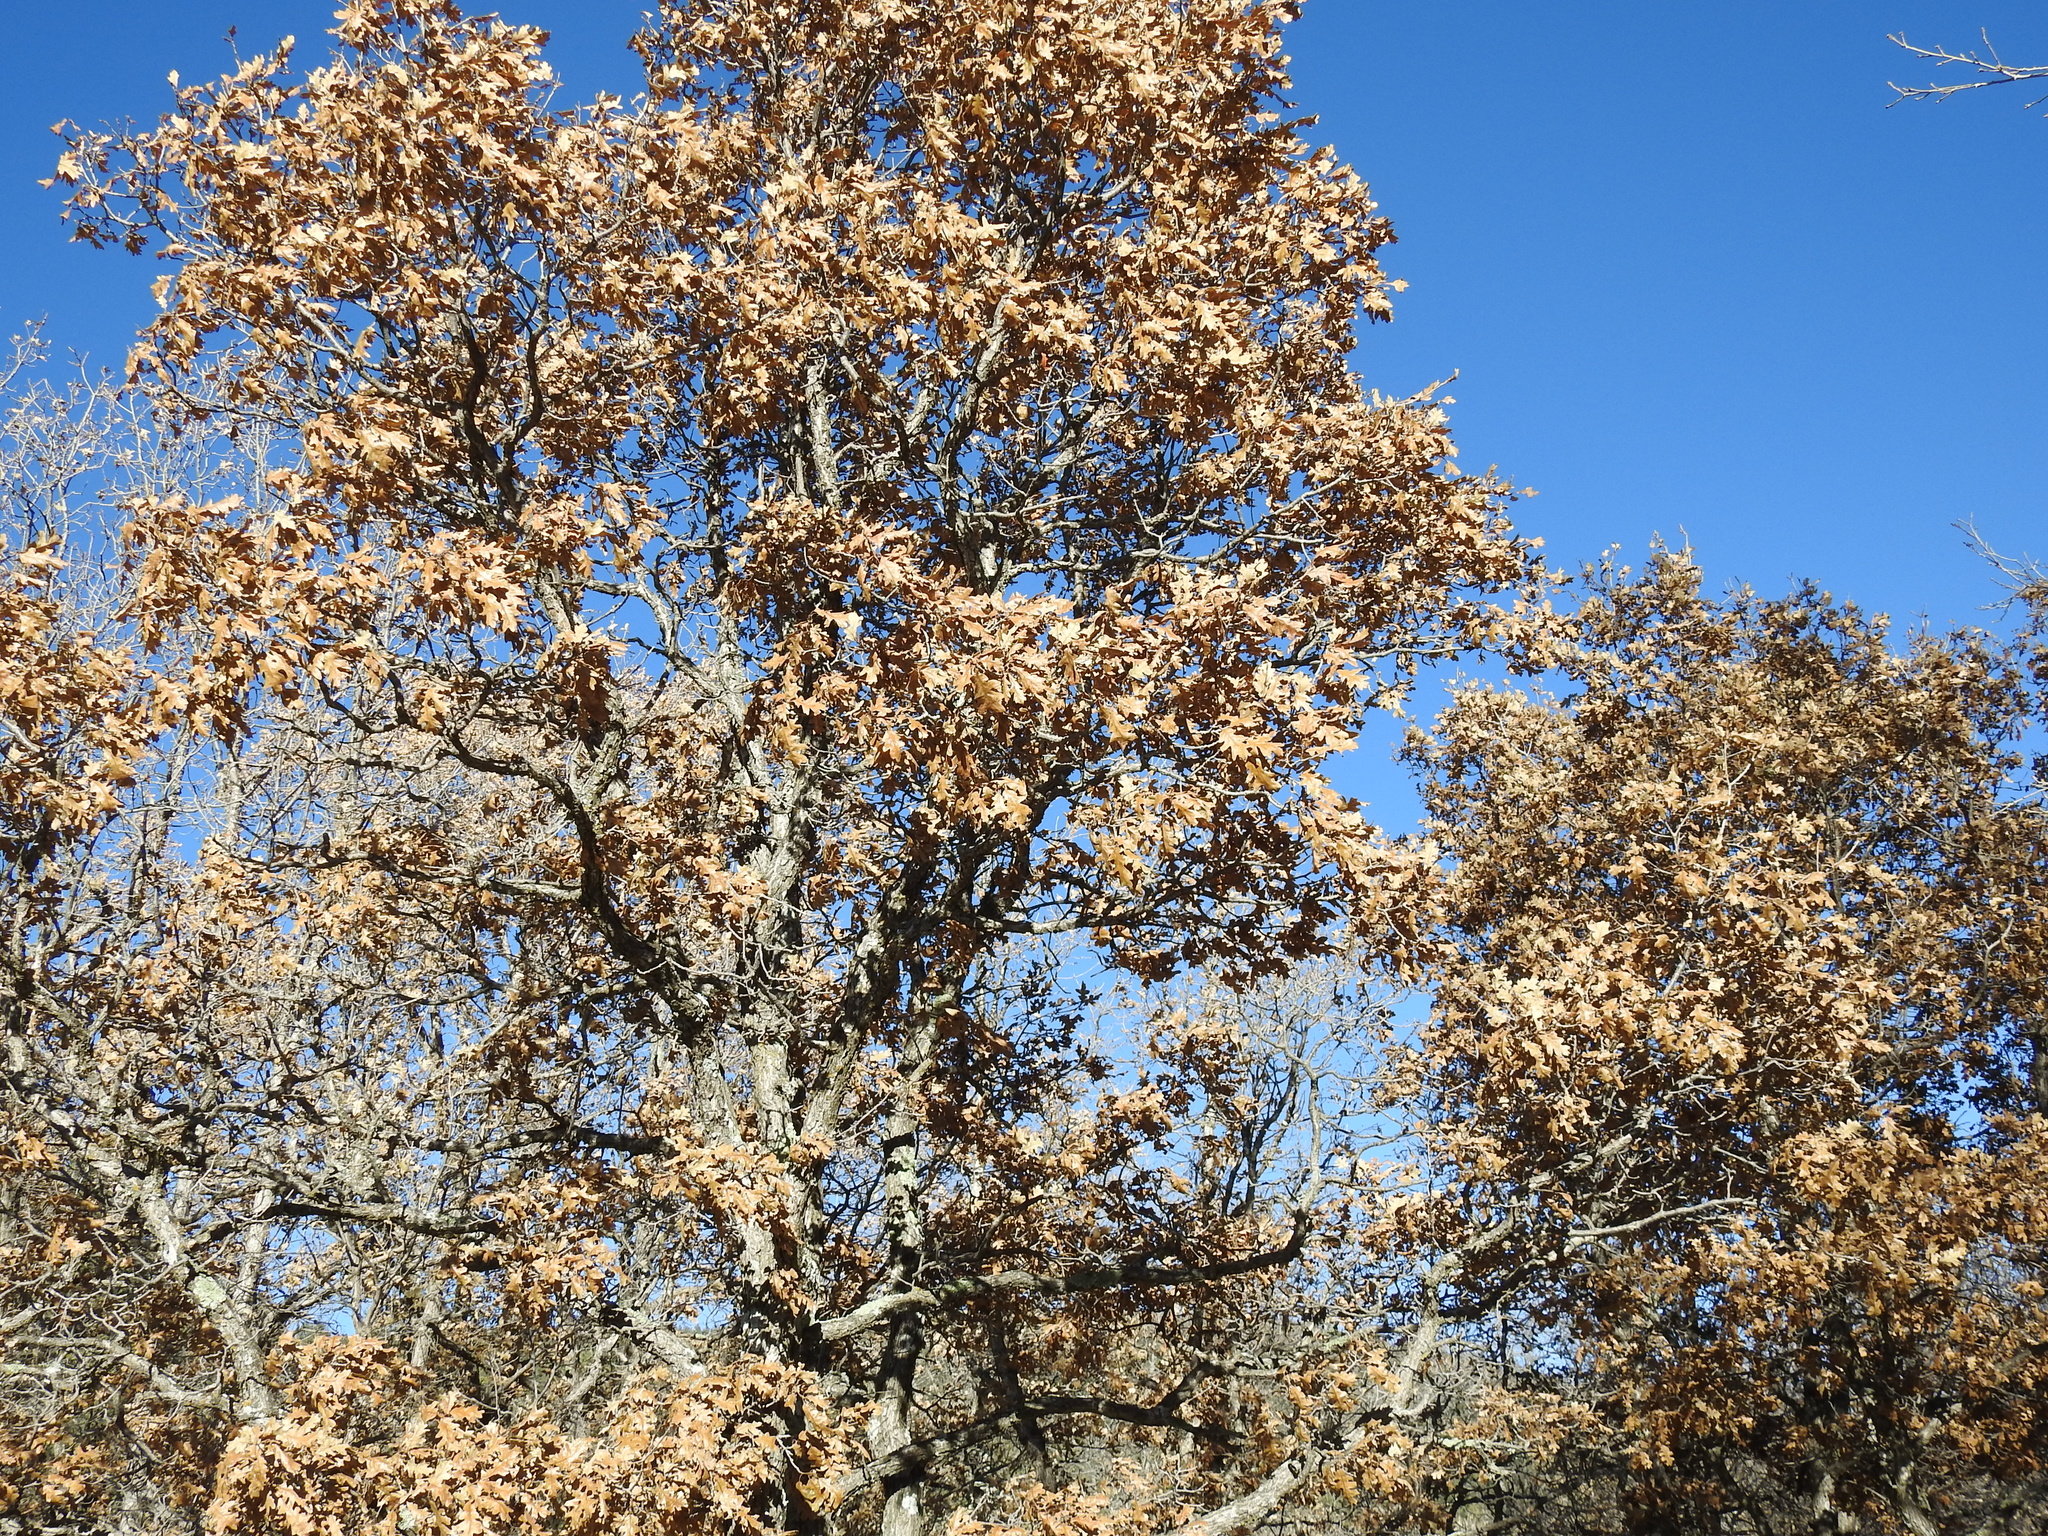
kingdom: Plantae
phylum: Tracheophyta
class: Magnoliopsida
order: Fagales
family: Fagaceae
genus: Quercus
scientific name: Quercus gambelii
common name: Gambel oak
